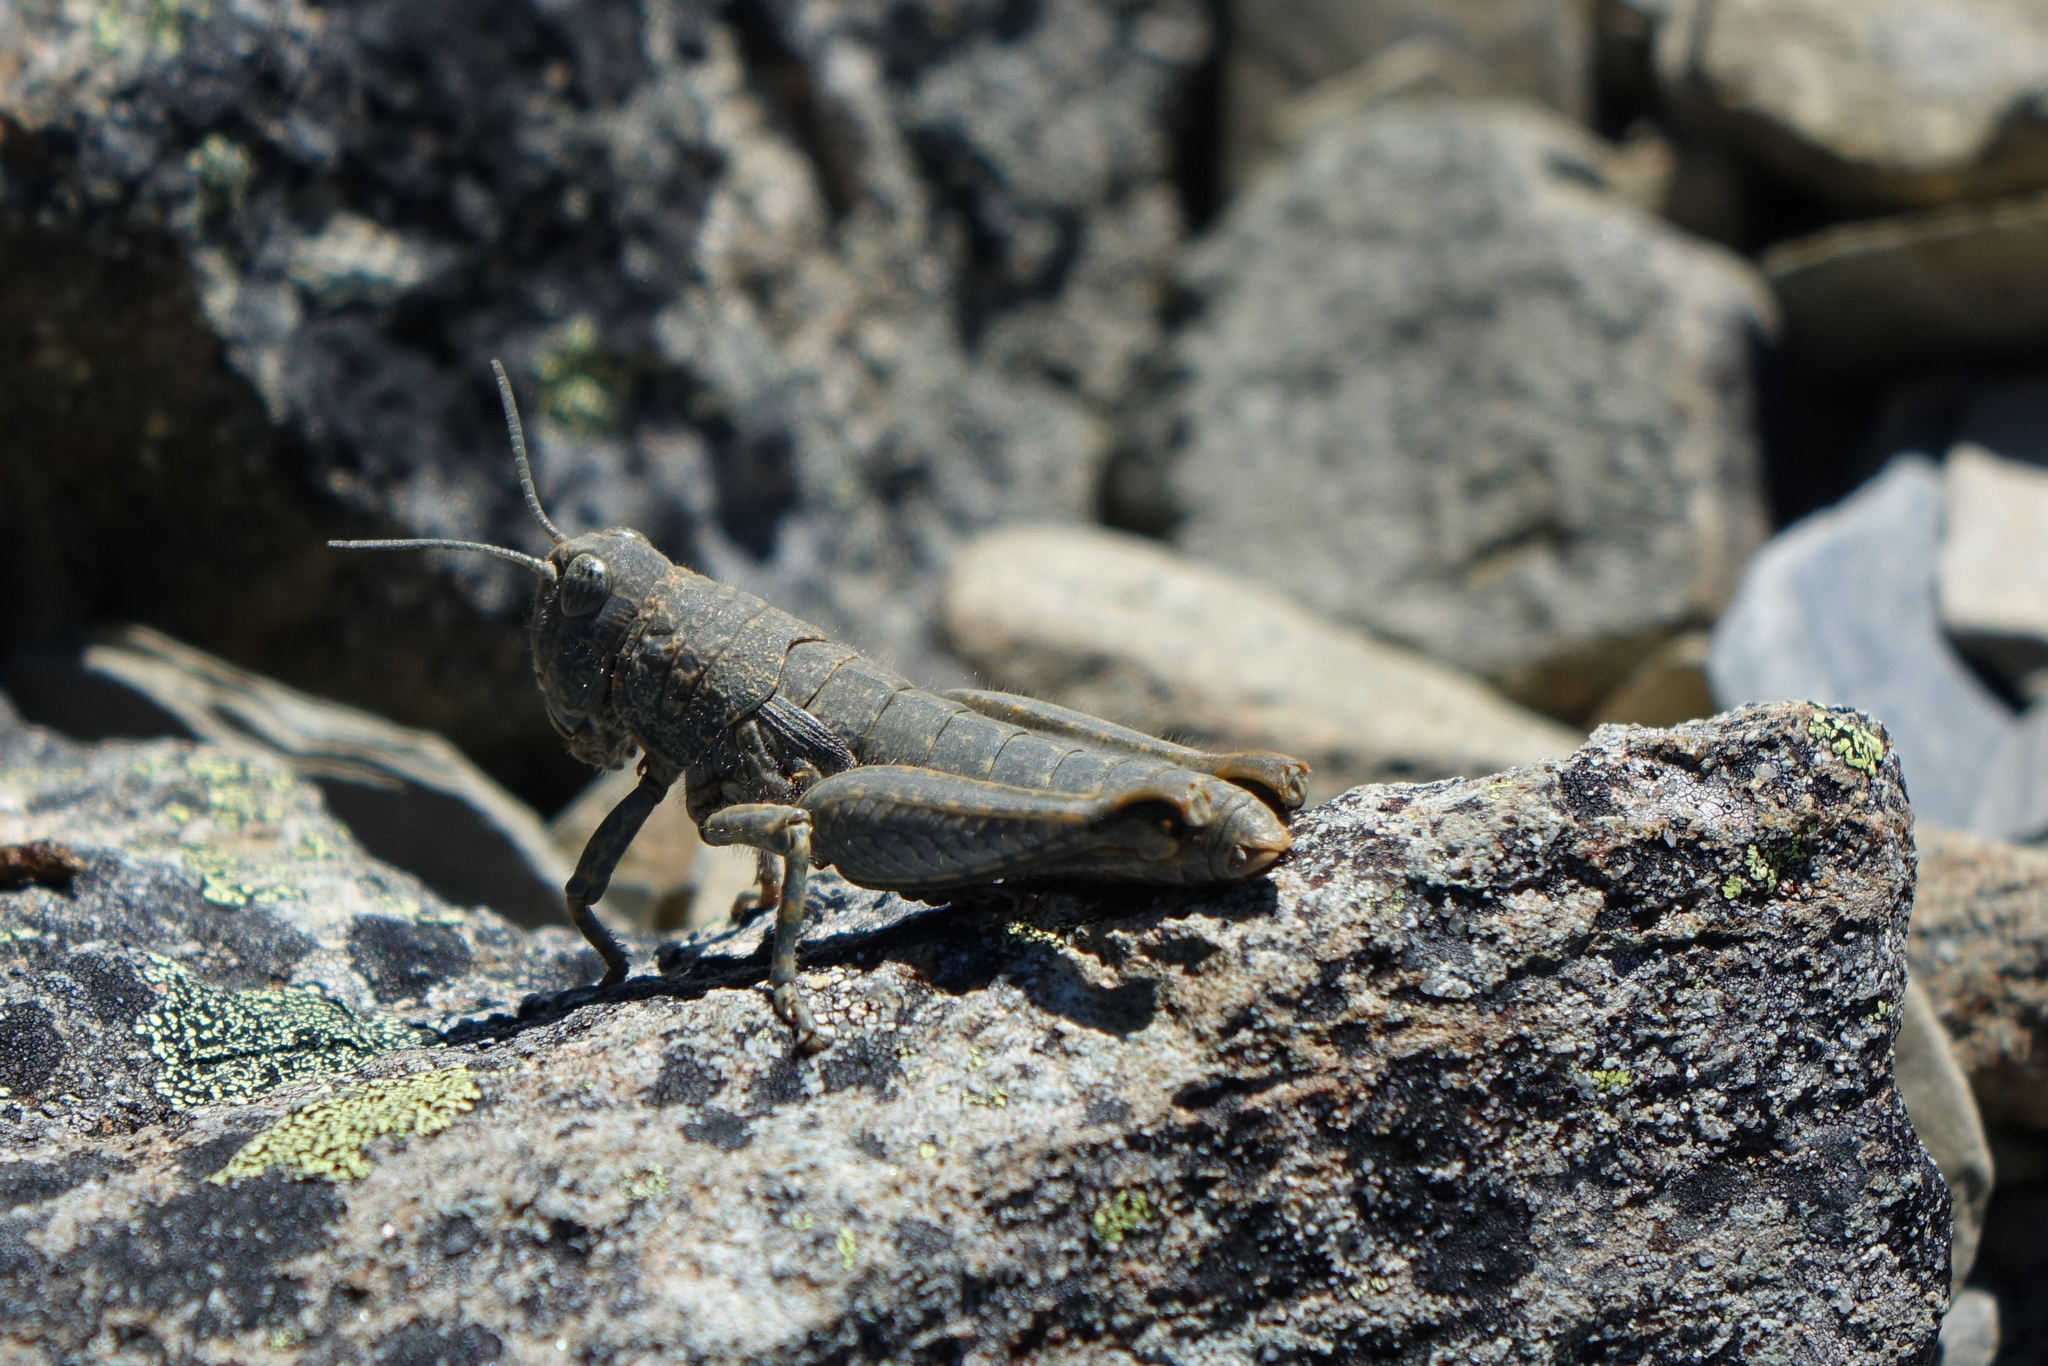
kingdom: Animalia
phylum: Arthropoda
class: Insecta
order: Orthoptera
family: Acrididae
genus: Sigaus
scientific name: Sigaus
